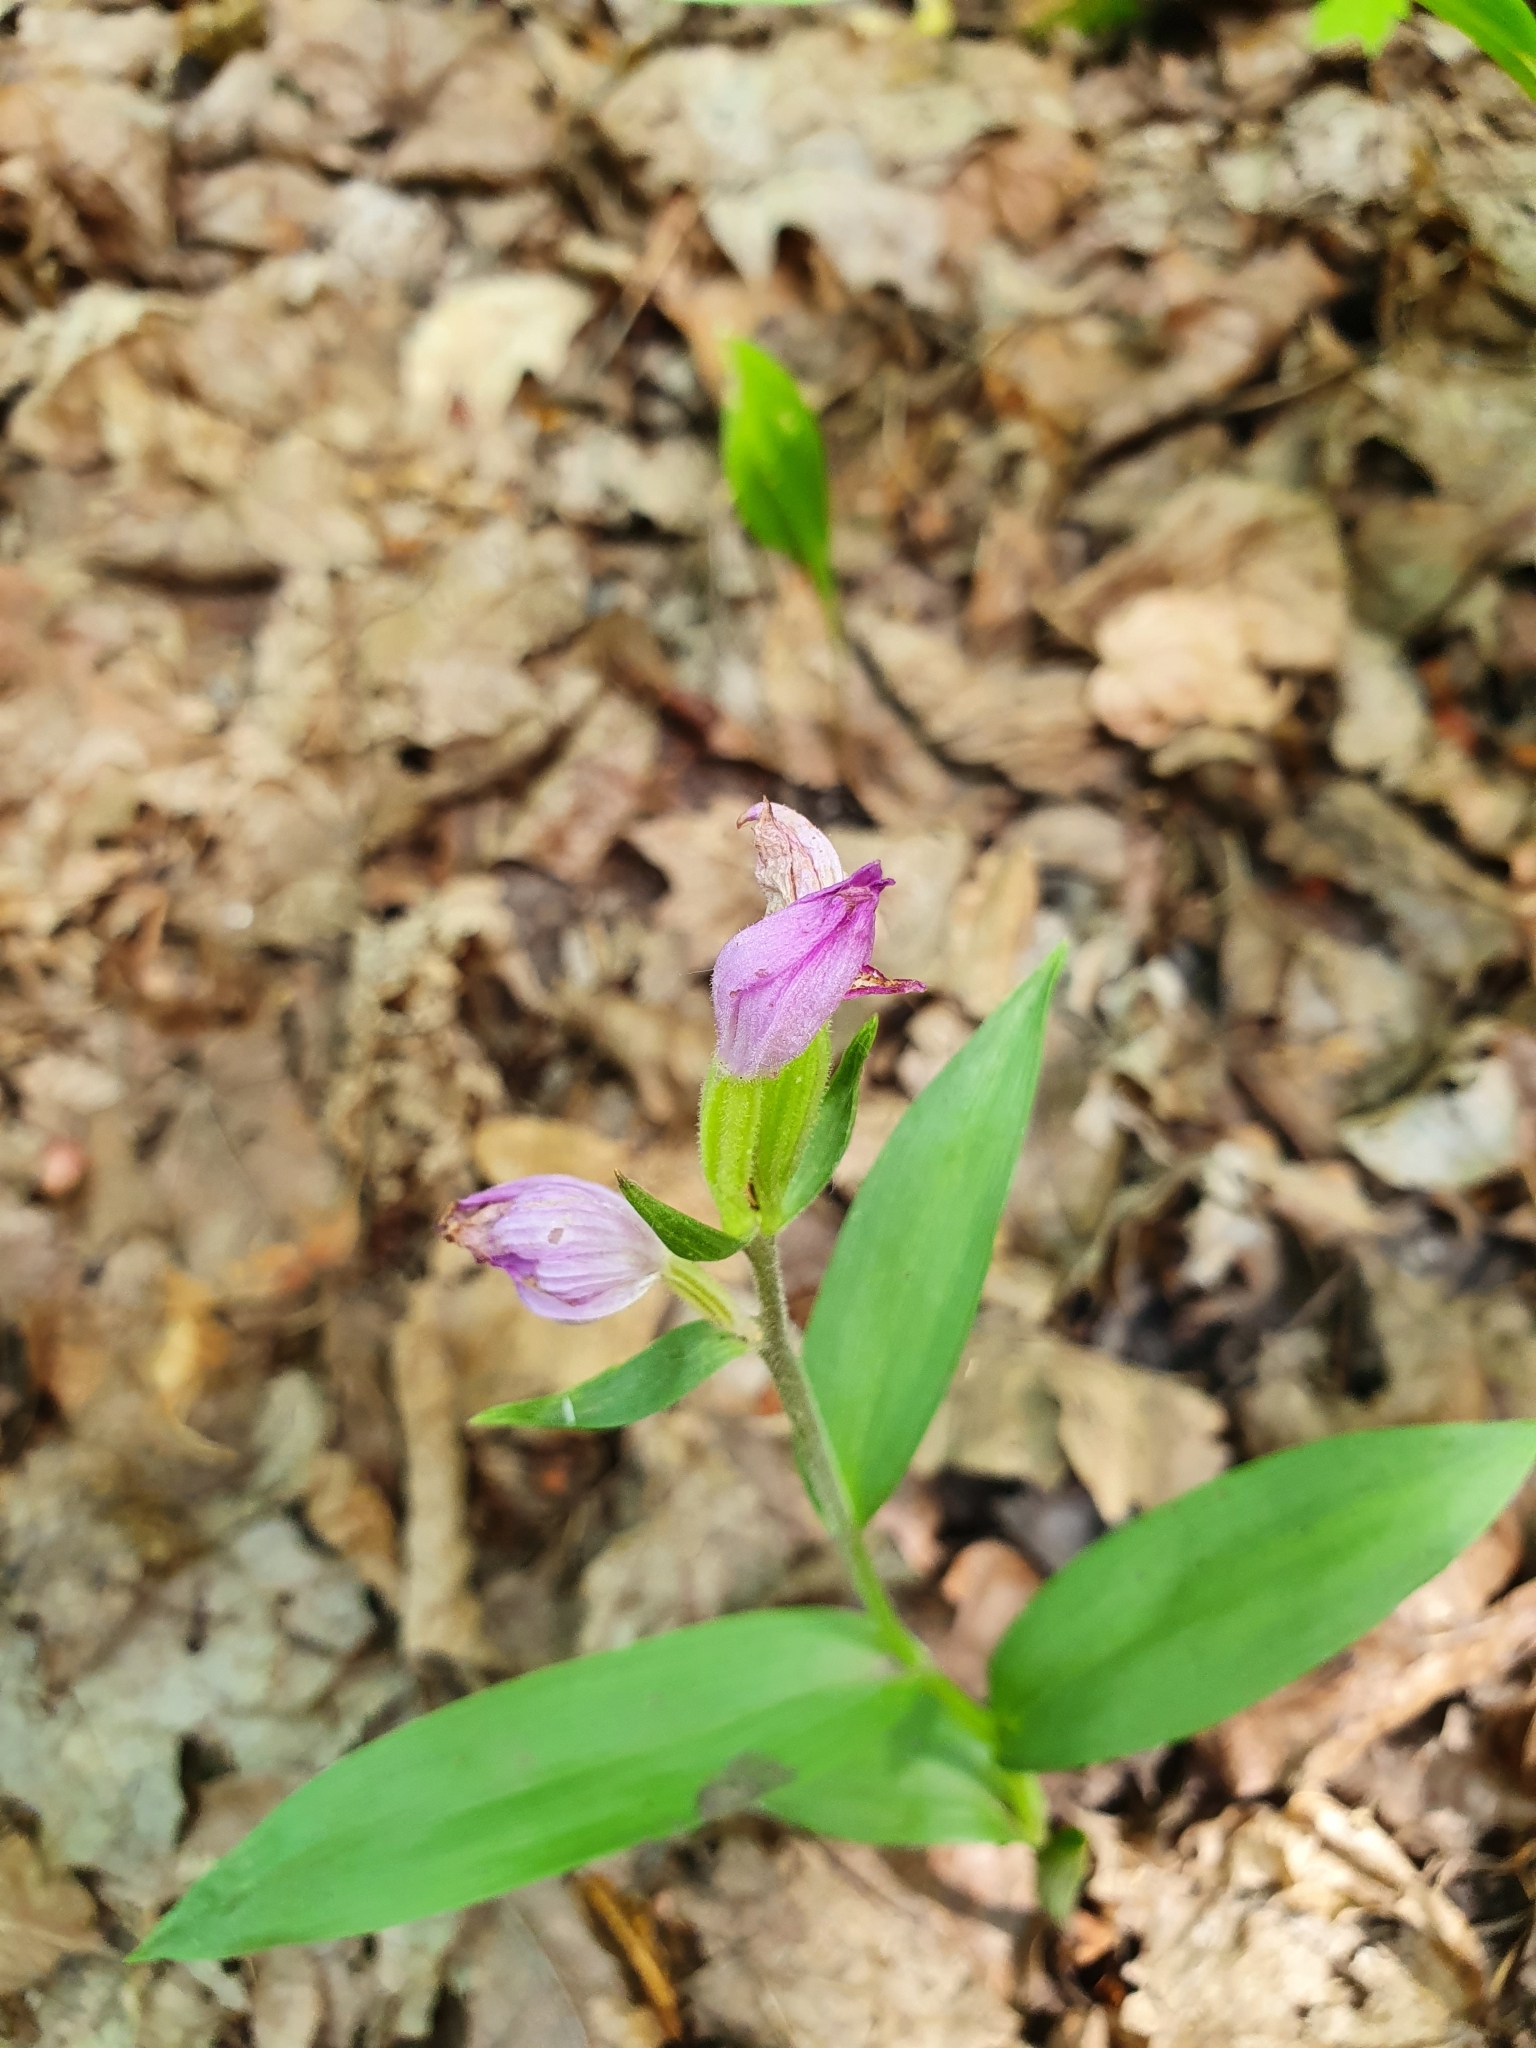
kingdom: Plantae
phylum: Tracheophyta
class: Liliopsida
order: Asparagales
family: Orchidaceae
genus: Cephalanthera
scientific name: Cephalanthera rubra
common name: Red helleborine
